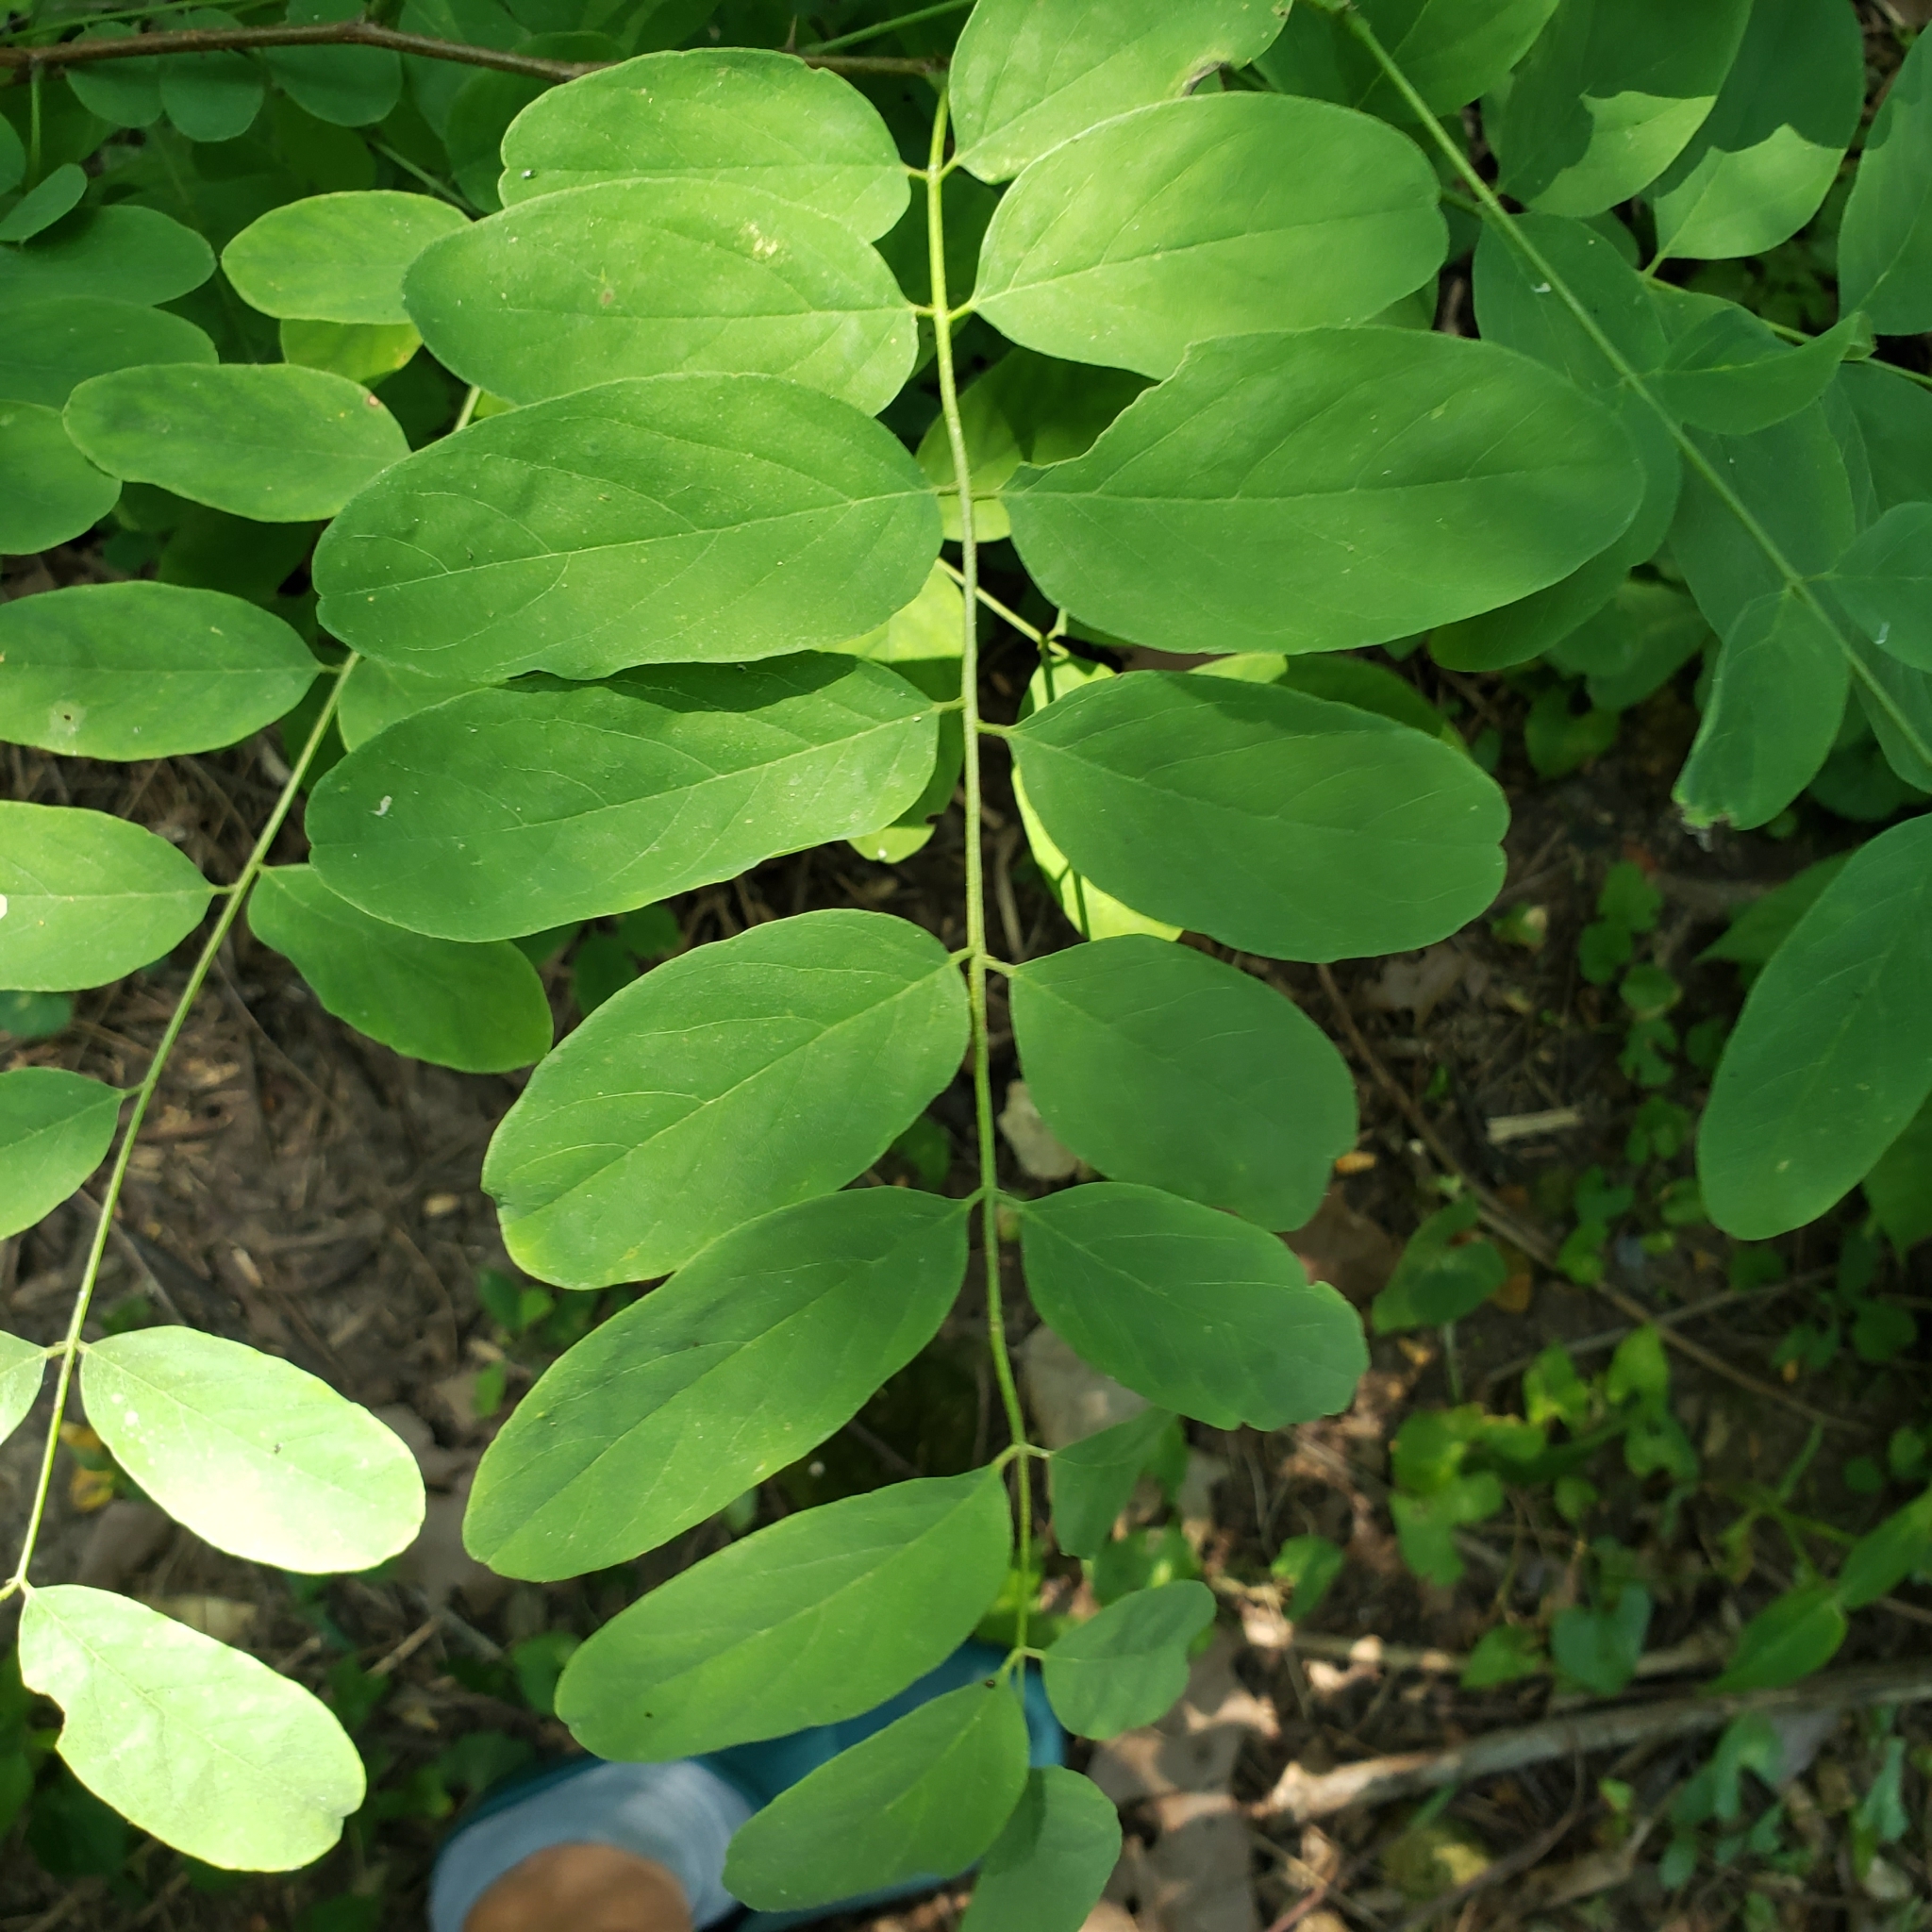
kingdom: Plantae
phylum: Tracheophyta
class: Magnoliopsida
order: Fabales
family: Fabaceae
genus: Robinia
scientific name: Robinia pseudoacacia
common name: Black locust
